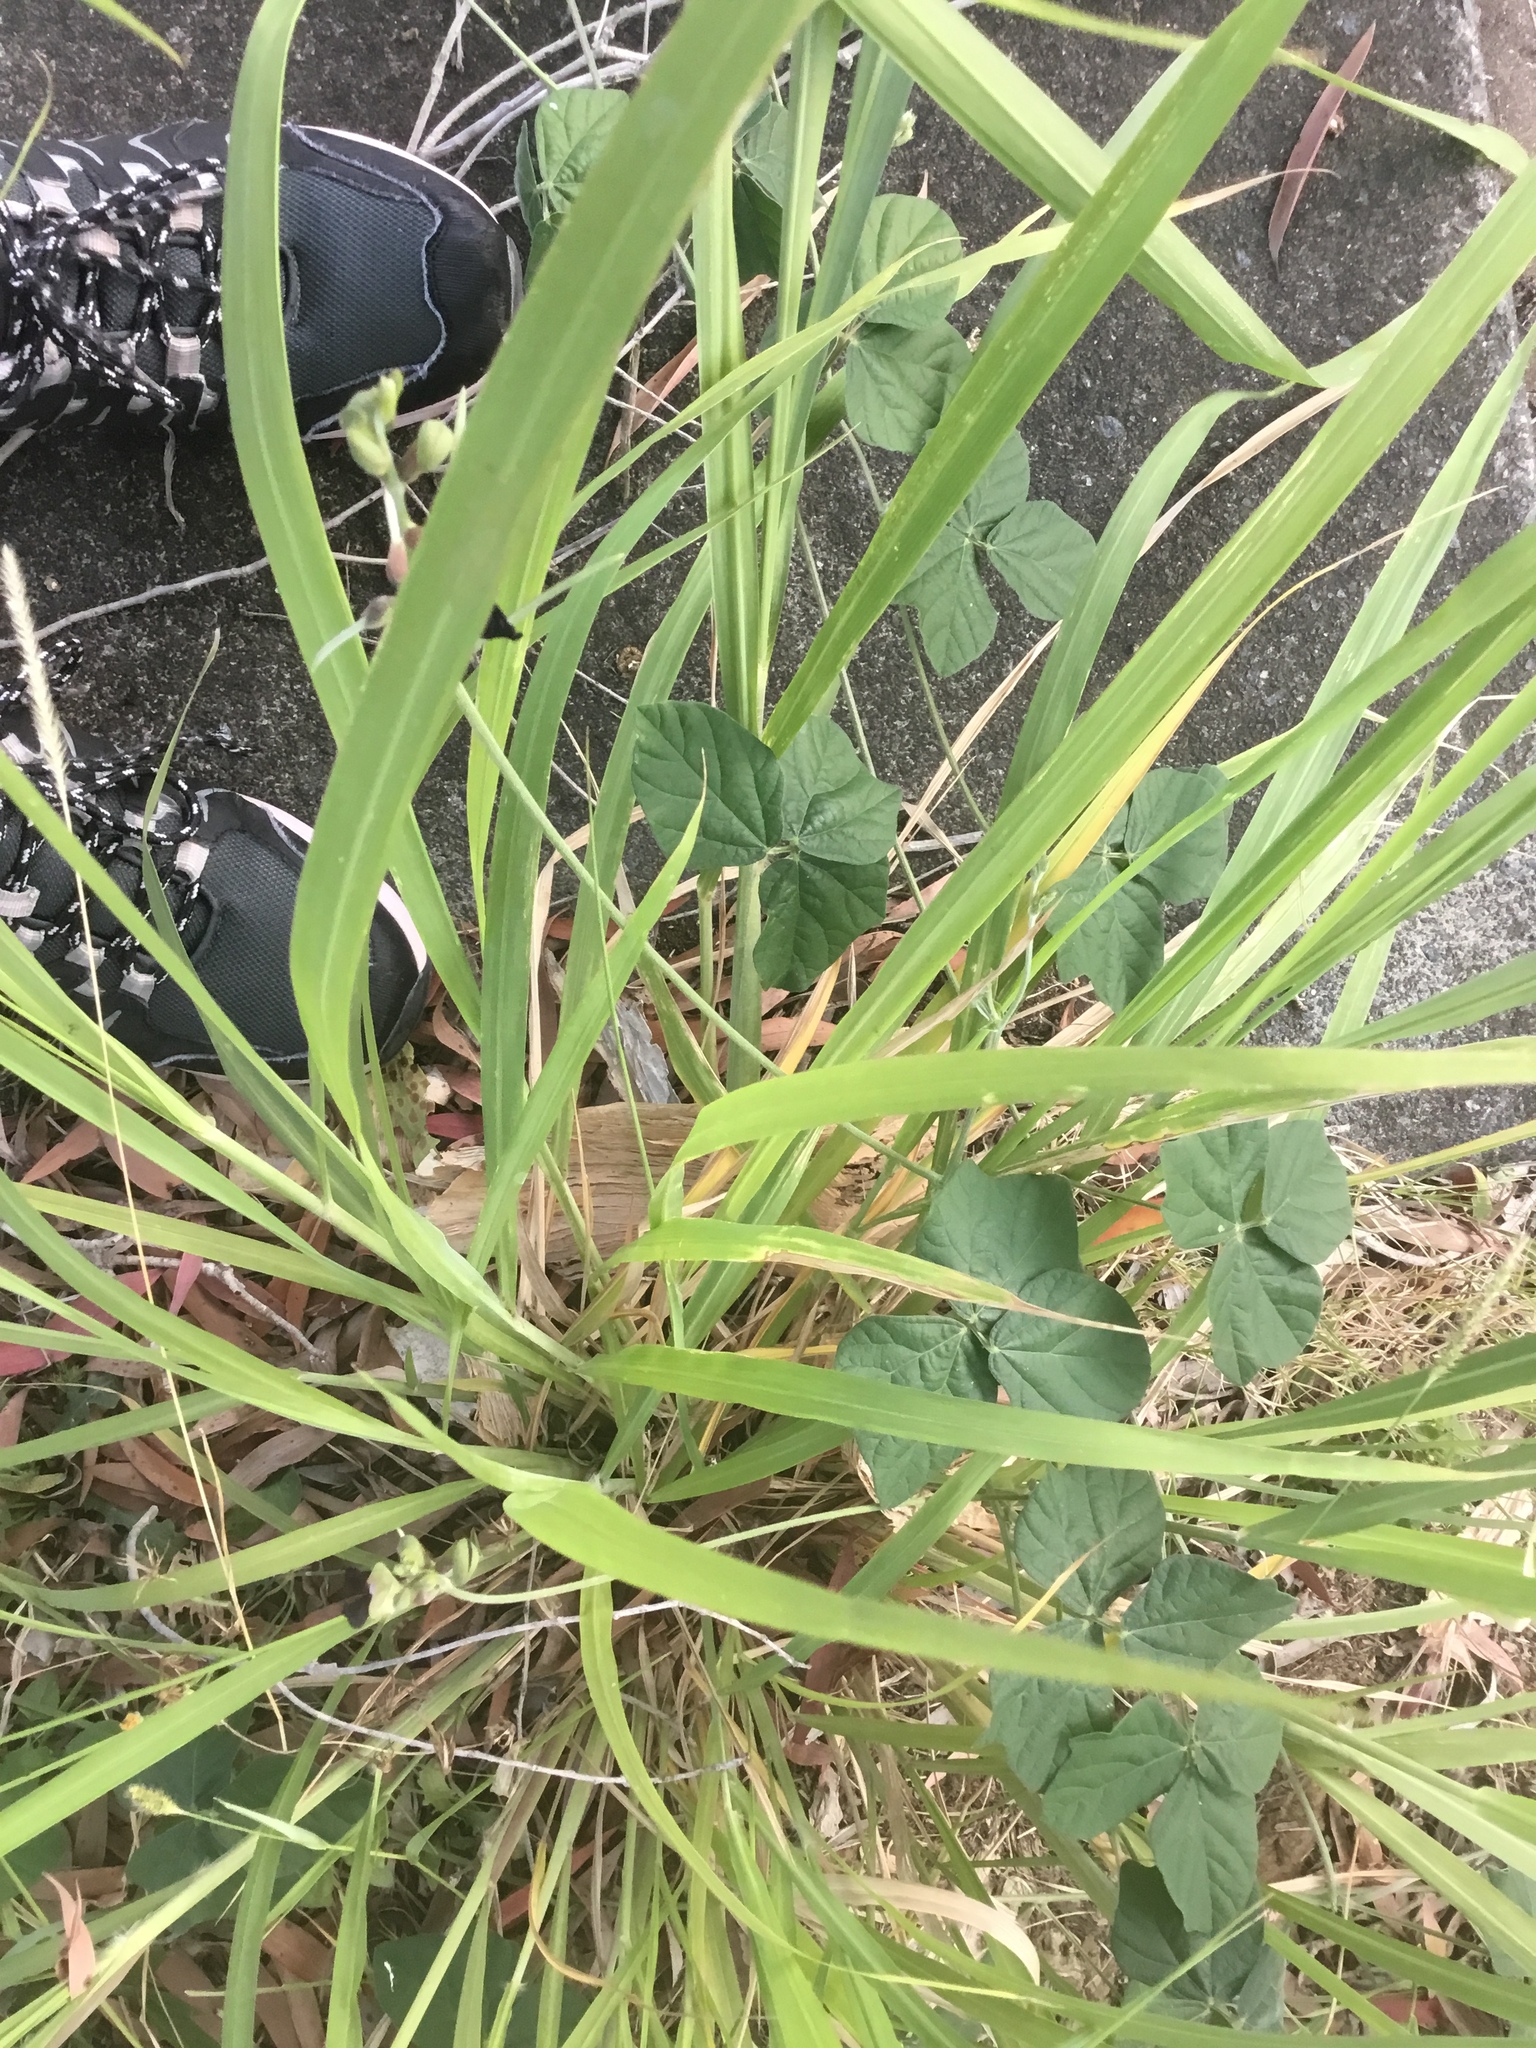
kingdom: Plantae
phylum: Tracheophyta
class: Magnoliopsida
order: Fabales
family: Fabaceae
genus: Macroptilium
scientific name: Macroptilium atropurpureum
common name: Purple bushbean
